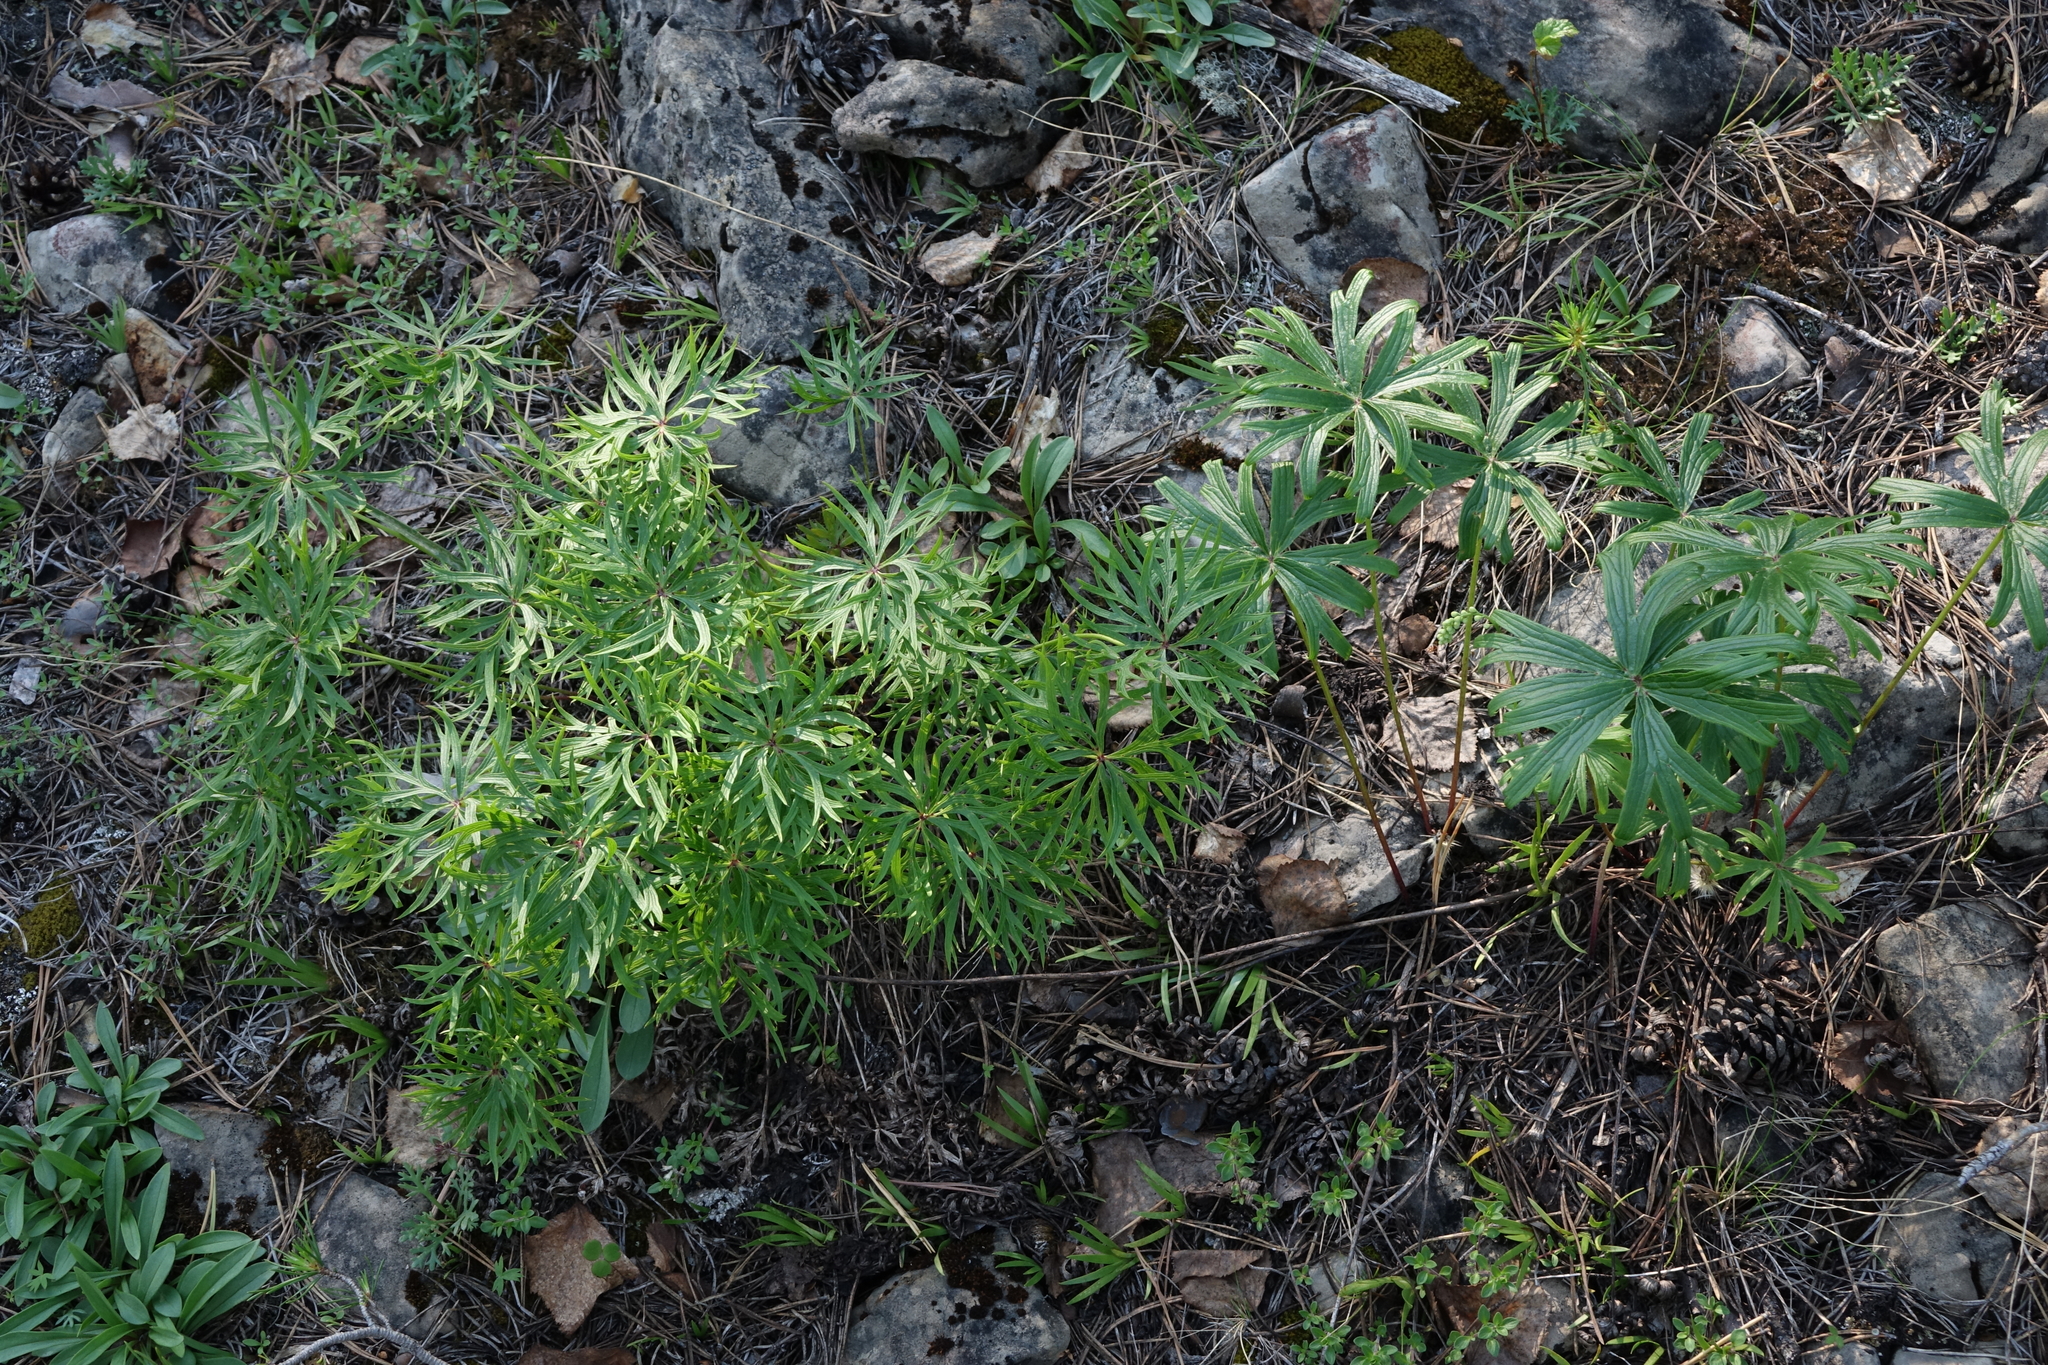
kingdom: Plantae
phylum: Tracheophyta
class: Magnoliopsida
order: Ranunculales
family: Ranunculaceae
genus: Pulsatilla
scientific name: Pulsatilla patens
